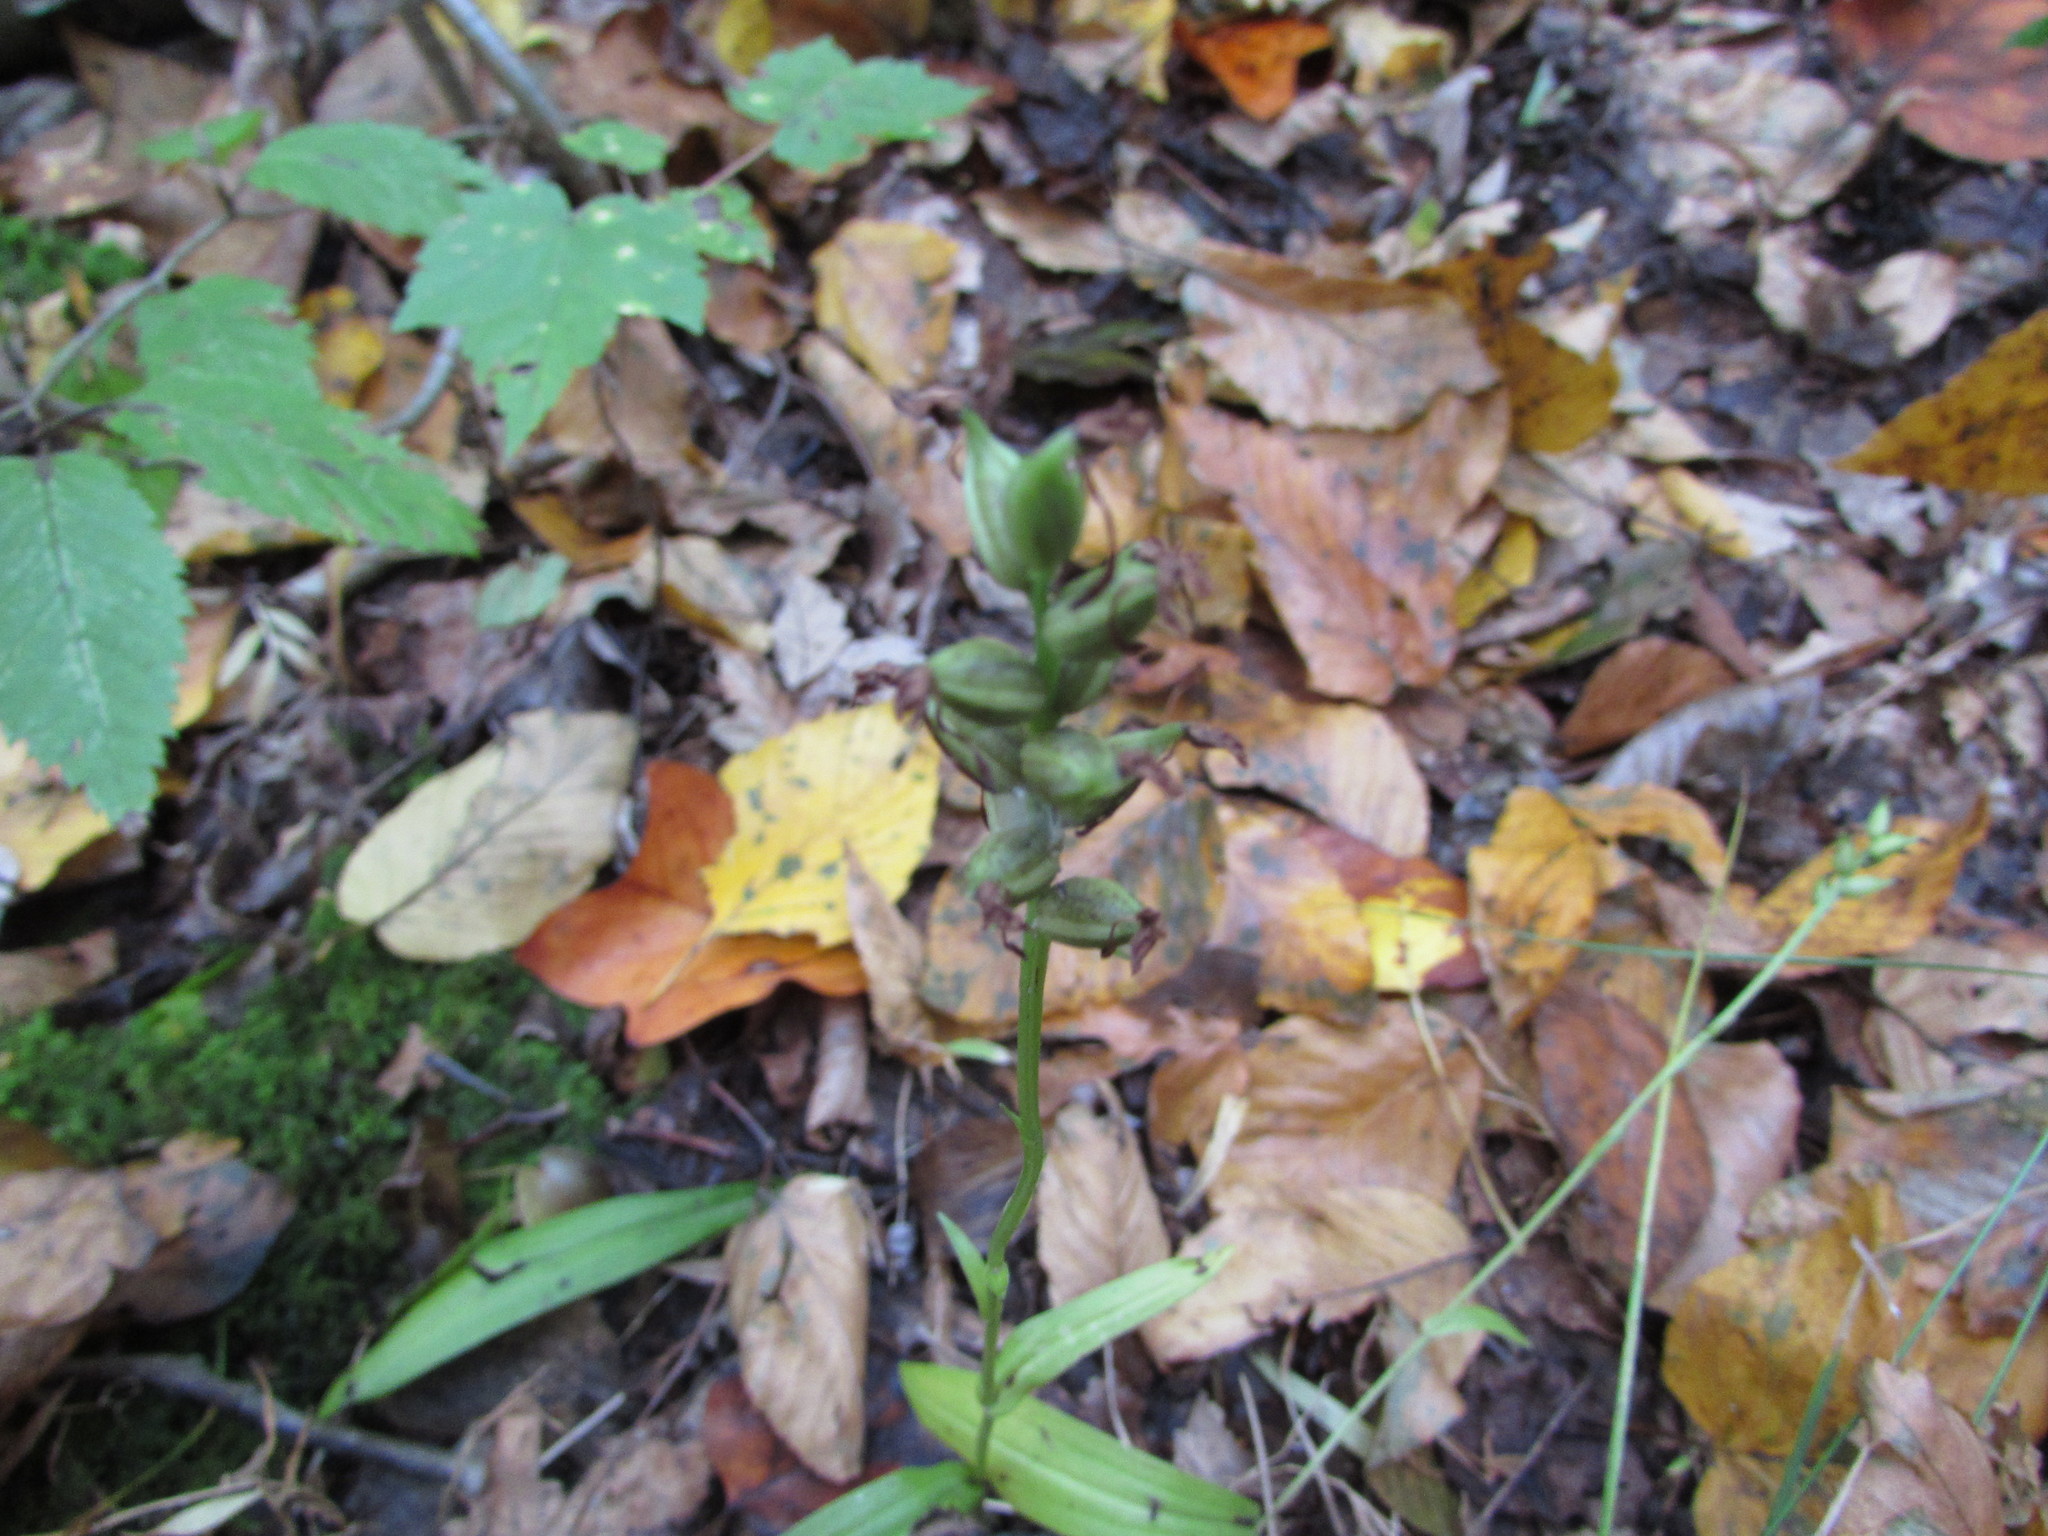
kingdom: Plantae
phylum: Tracheophyta
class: Liliopsida
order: Asparagales
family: Orchidaceae
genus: Platanthera
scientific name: Platanthera clavellata
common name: Club-spur orchid
